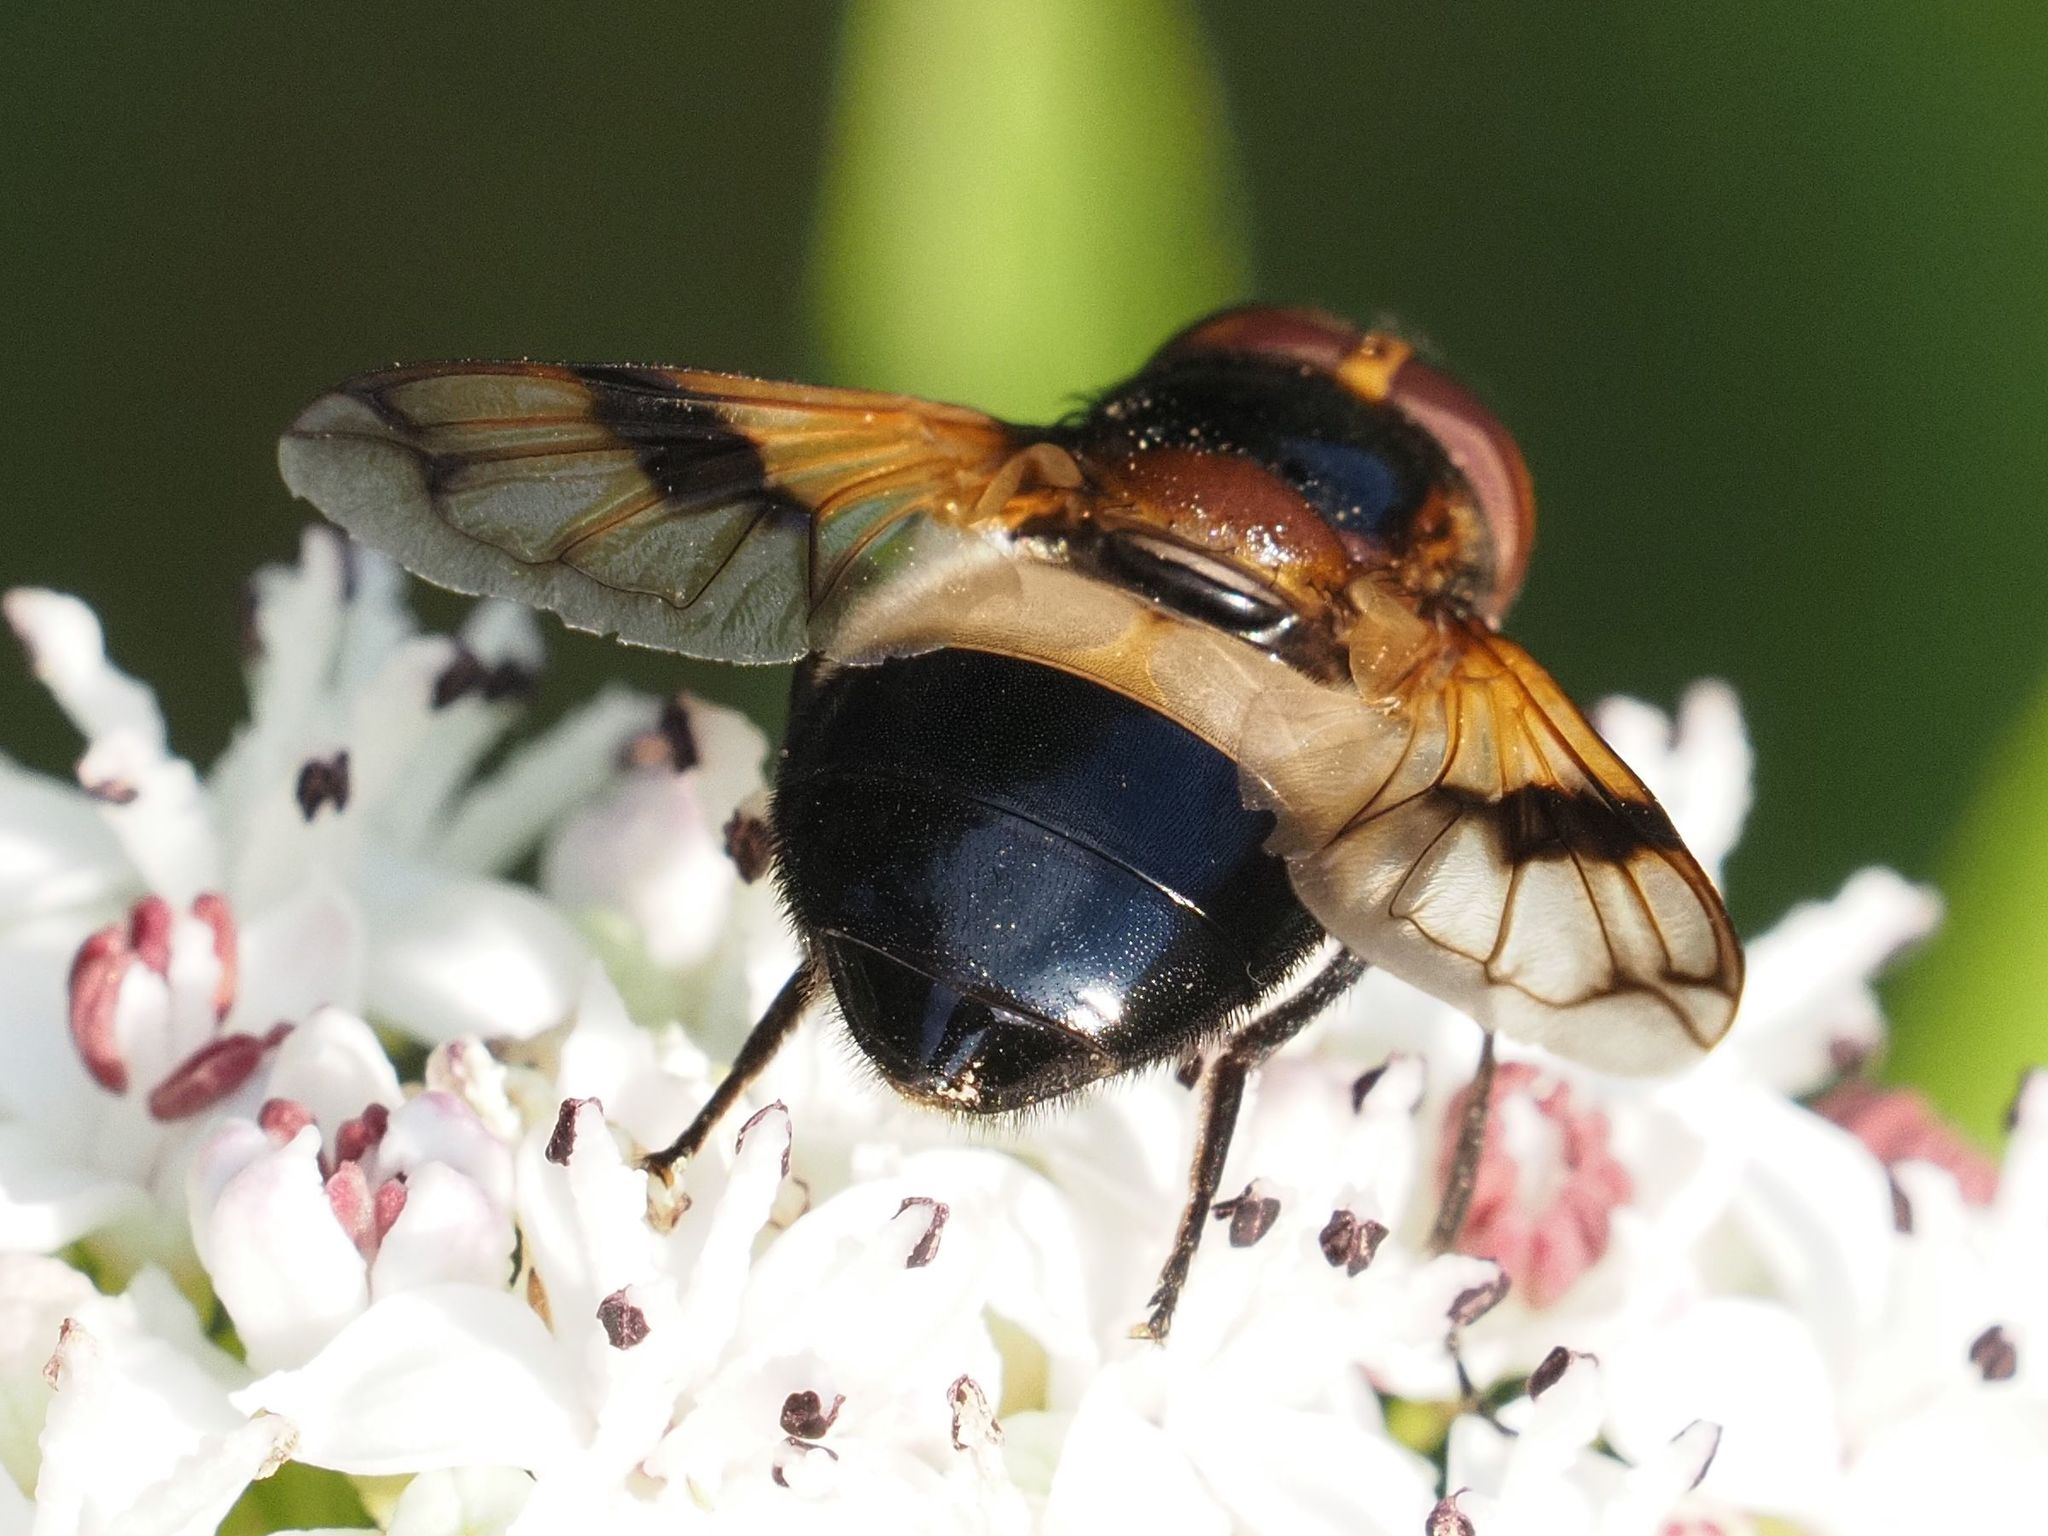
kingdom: Animalia
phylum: Arthropoda
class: Insecta
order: Diptera
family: Syrphidae
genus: Volucella
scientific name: Volucella pellucens
